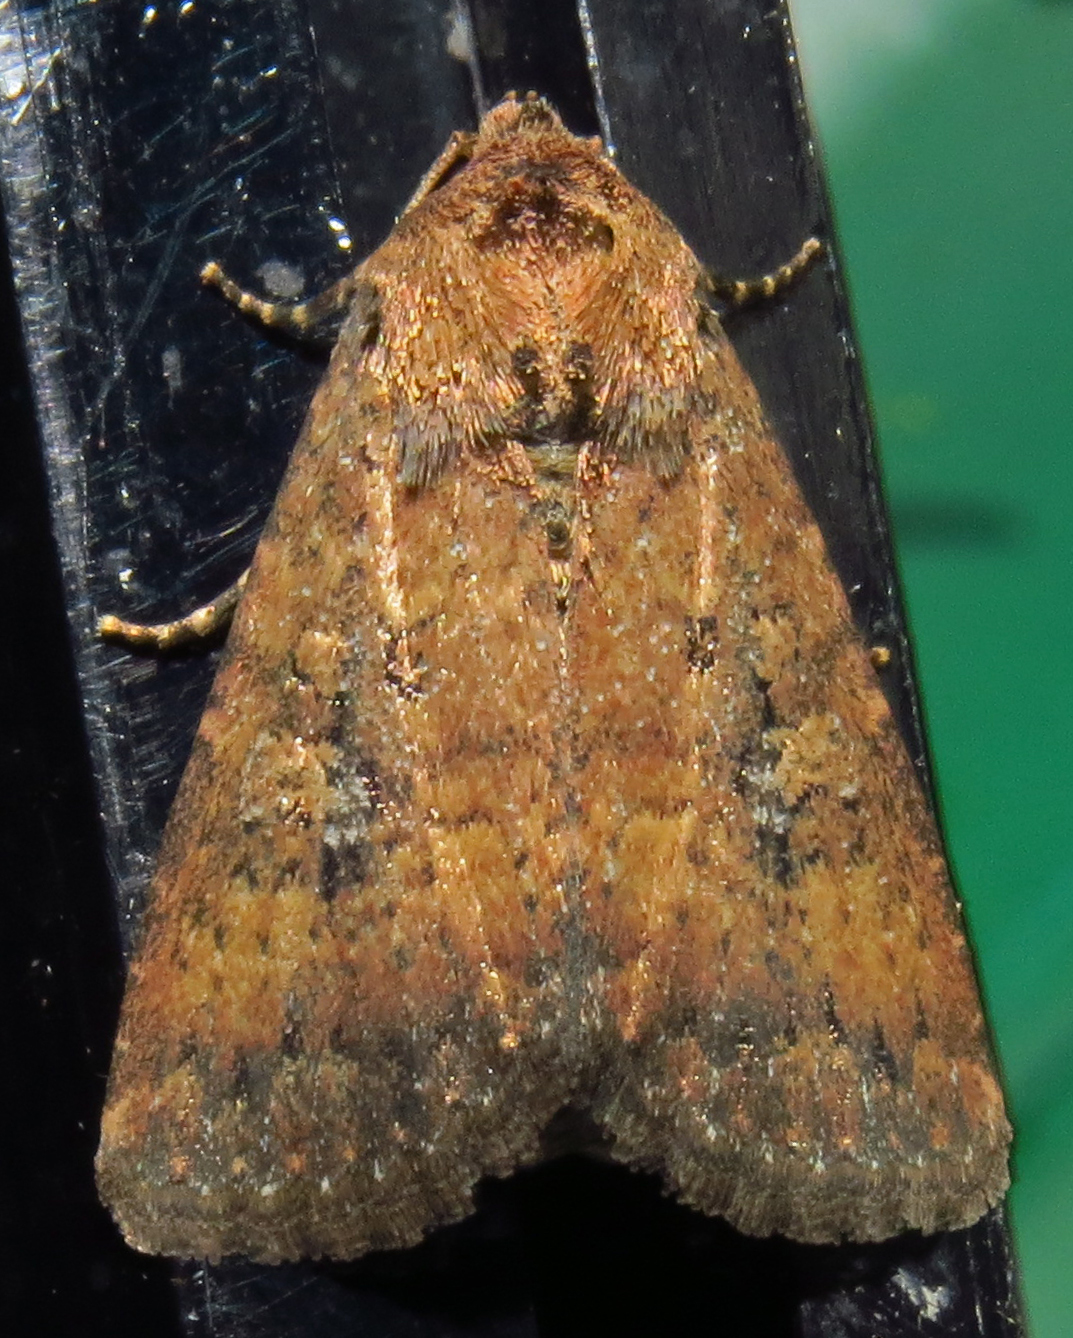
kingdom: Animalia
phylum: Arthropoda
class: Insecta
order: Lepidoptera
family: Noctuidae
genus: Condica
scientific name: Condica sutor
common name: Cobbler moth
